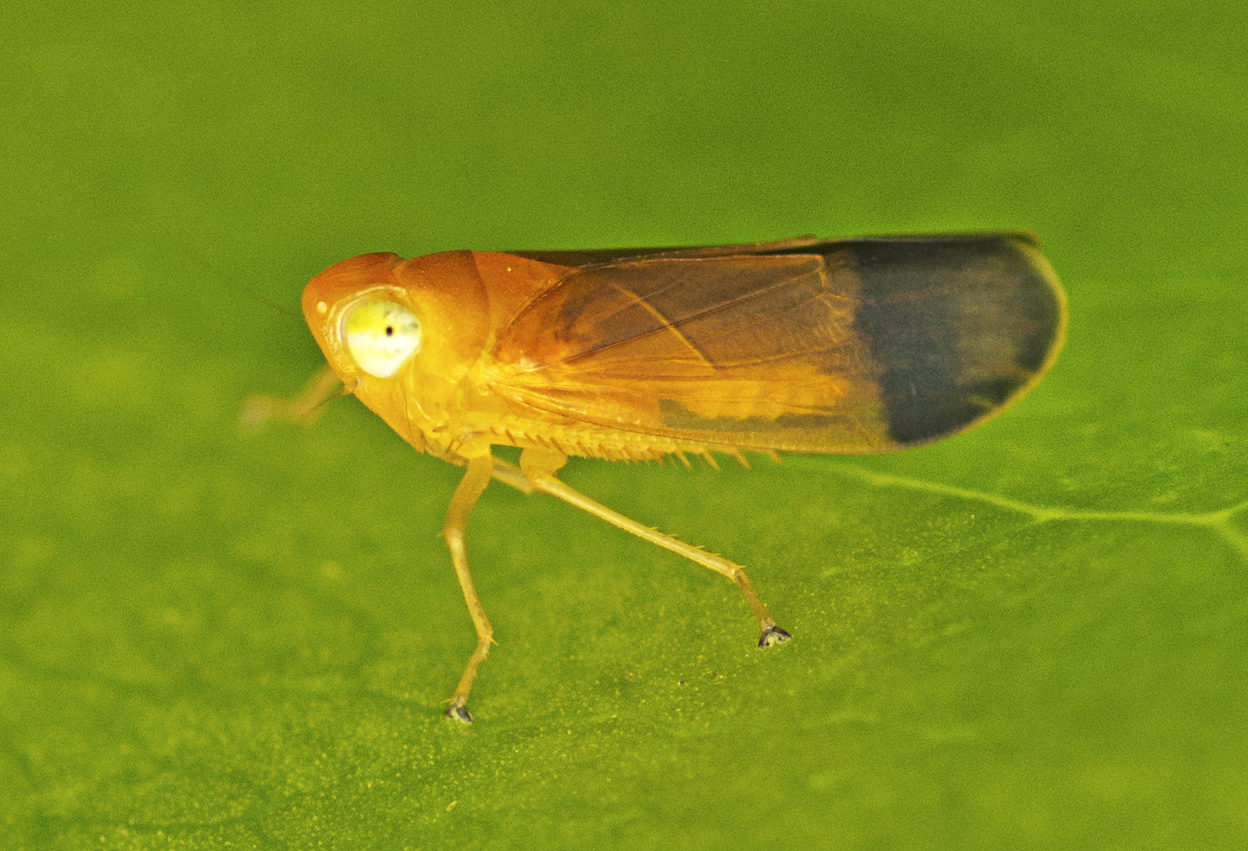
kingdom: Animalia
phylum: Arthropoda
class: Insecta
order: Hemiptera
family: Cicadellidae
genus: Nisitra
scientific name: Nisitra hackeri
